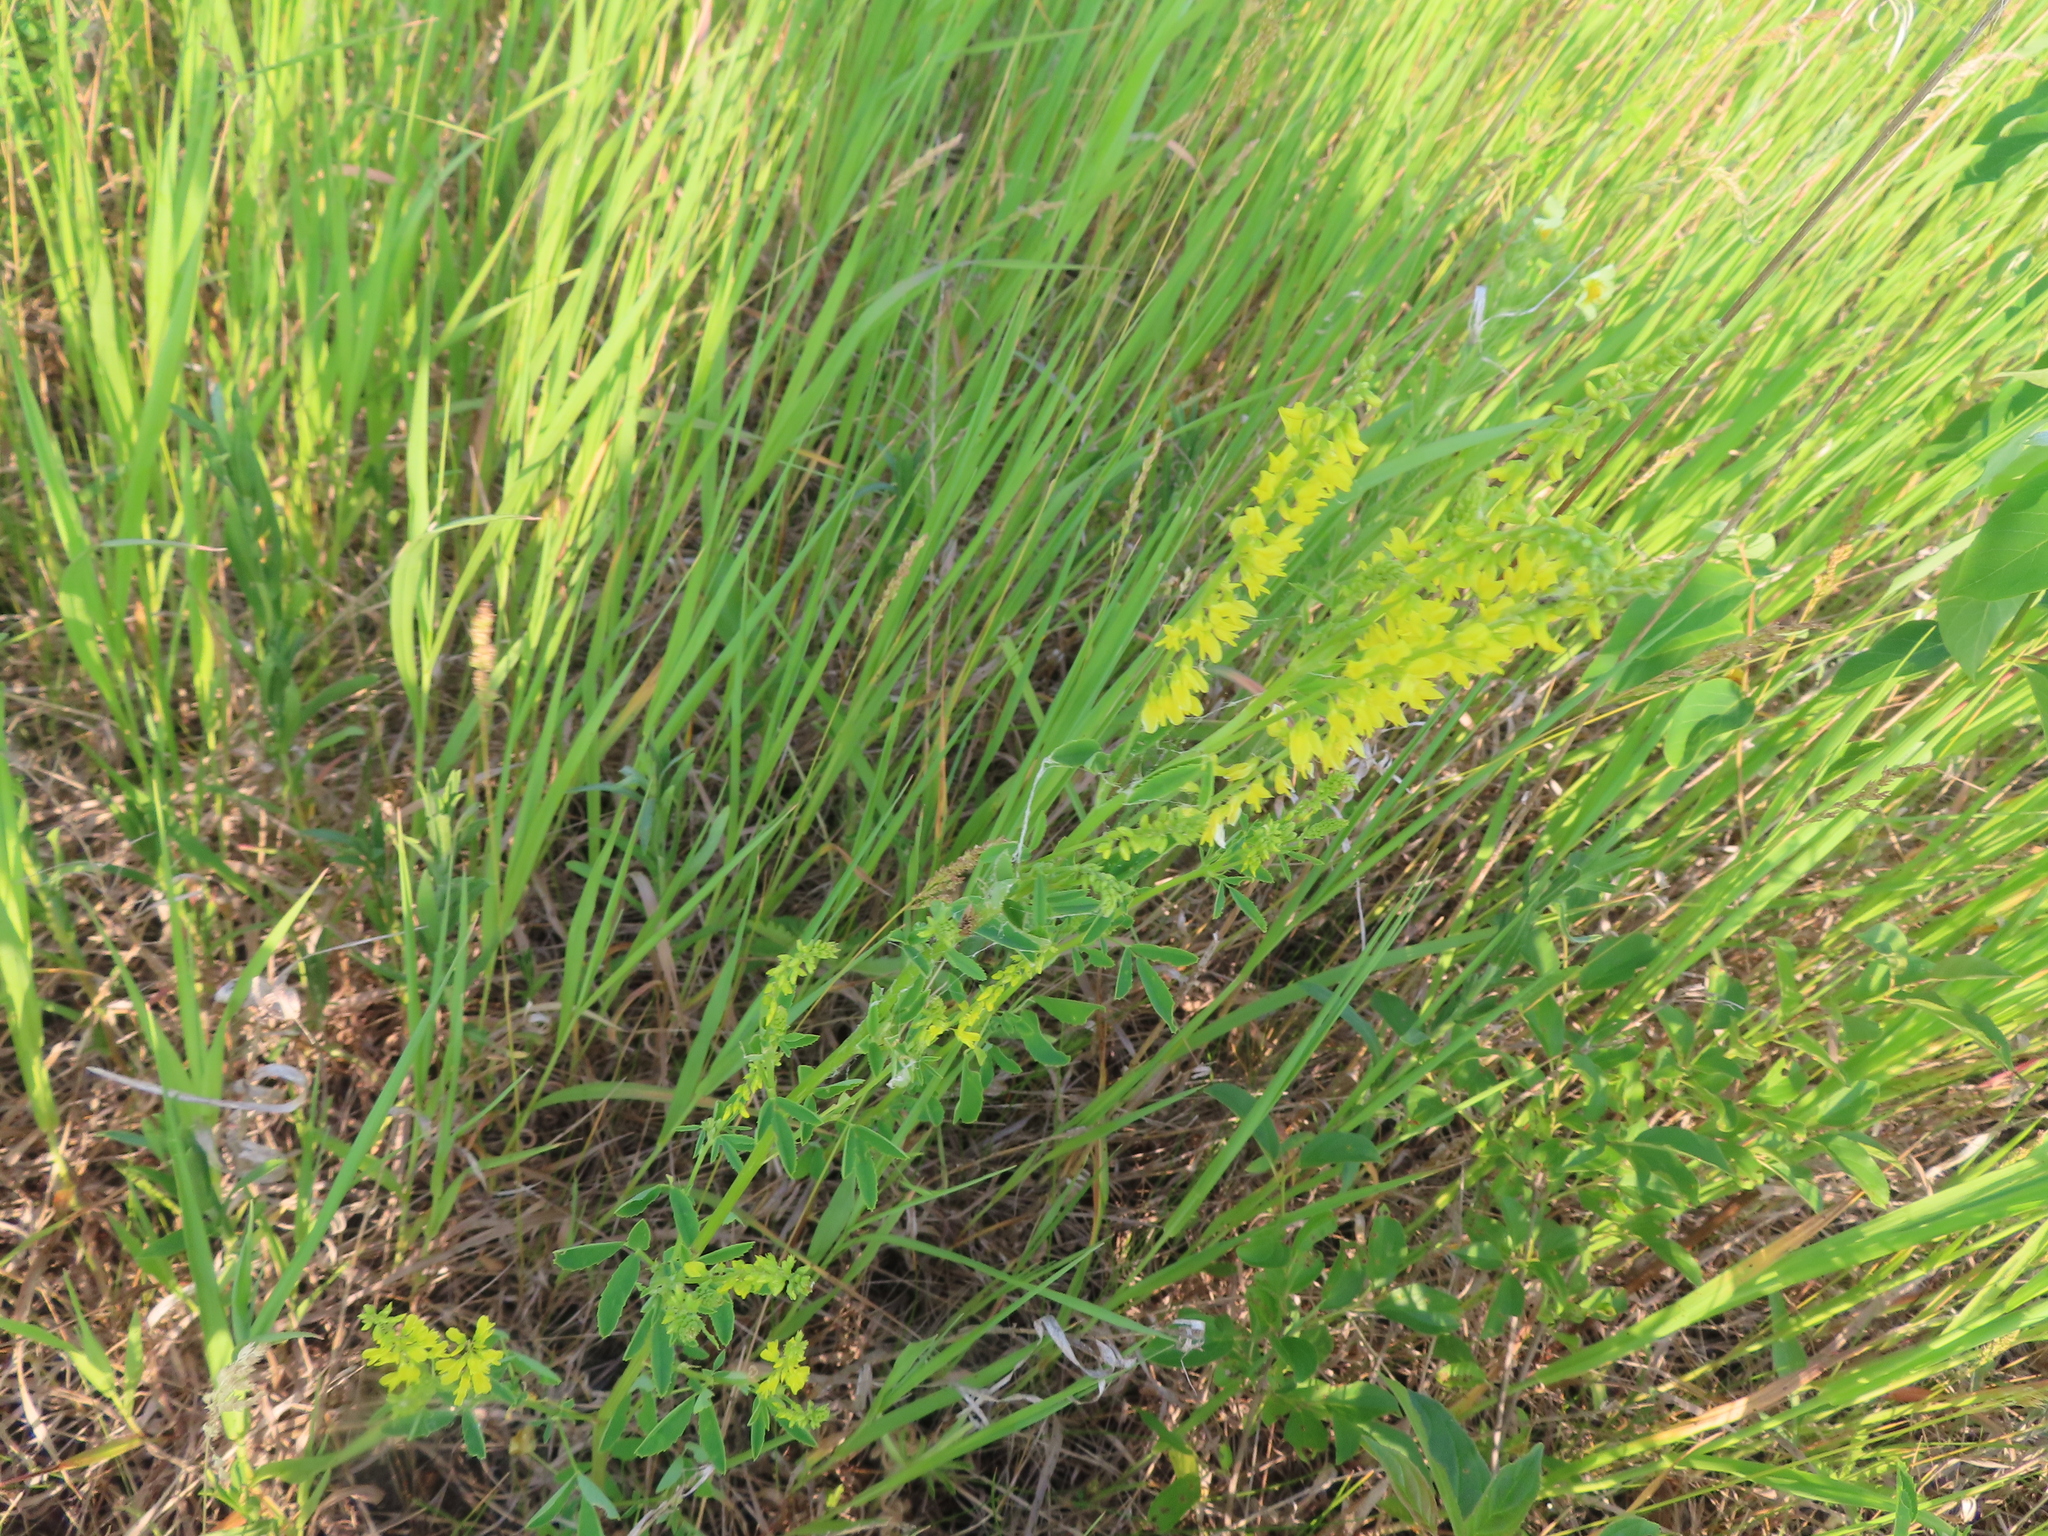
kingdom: Plantae
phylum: Tracheophyta
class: Magnoliopsida
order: Fabales
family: Fabaceae
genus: Melilotus
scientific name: Melilotus officinalis
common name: Sweetclover
